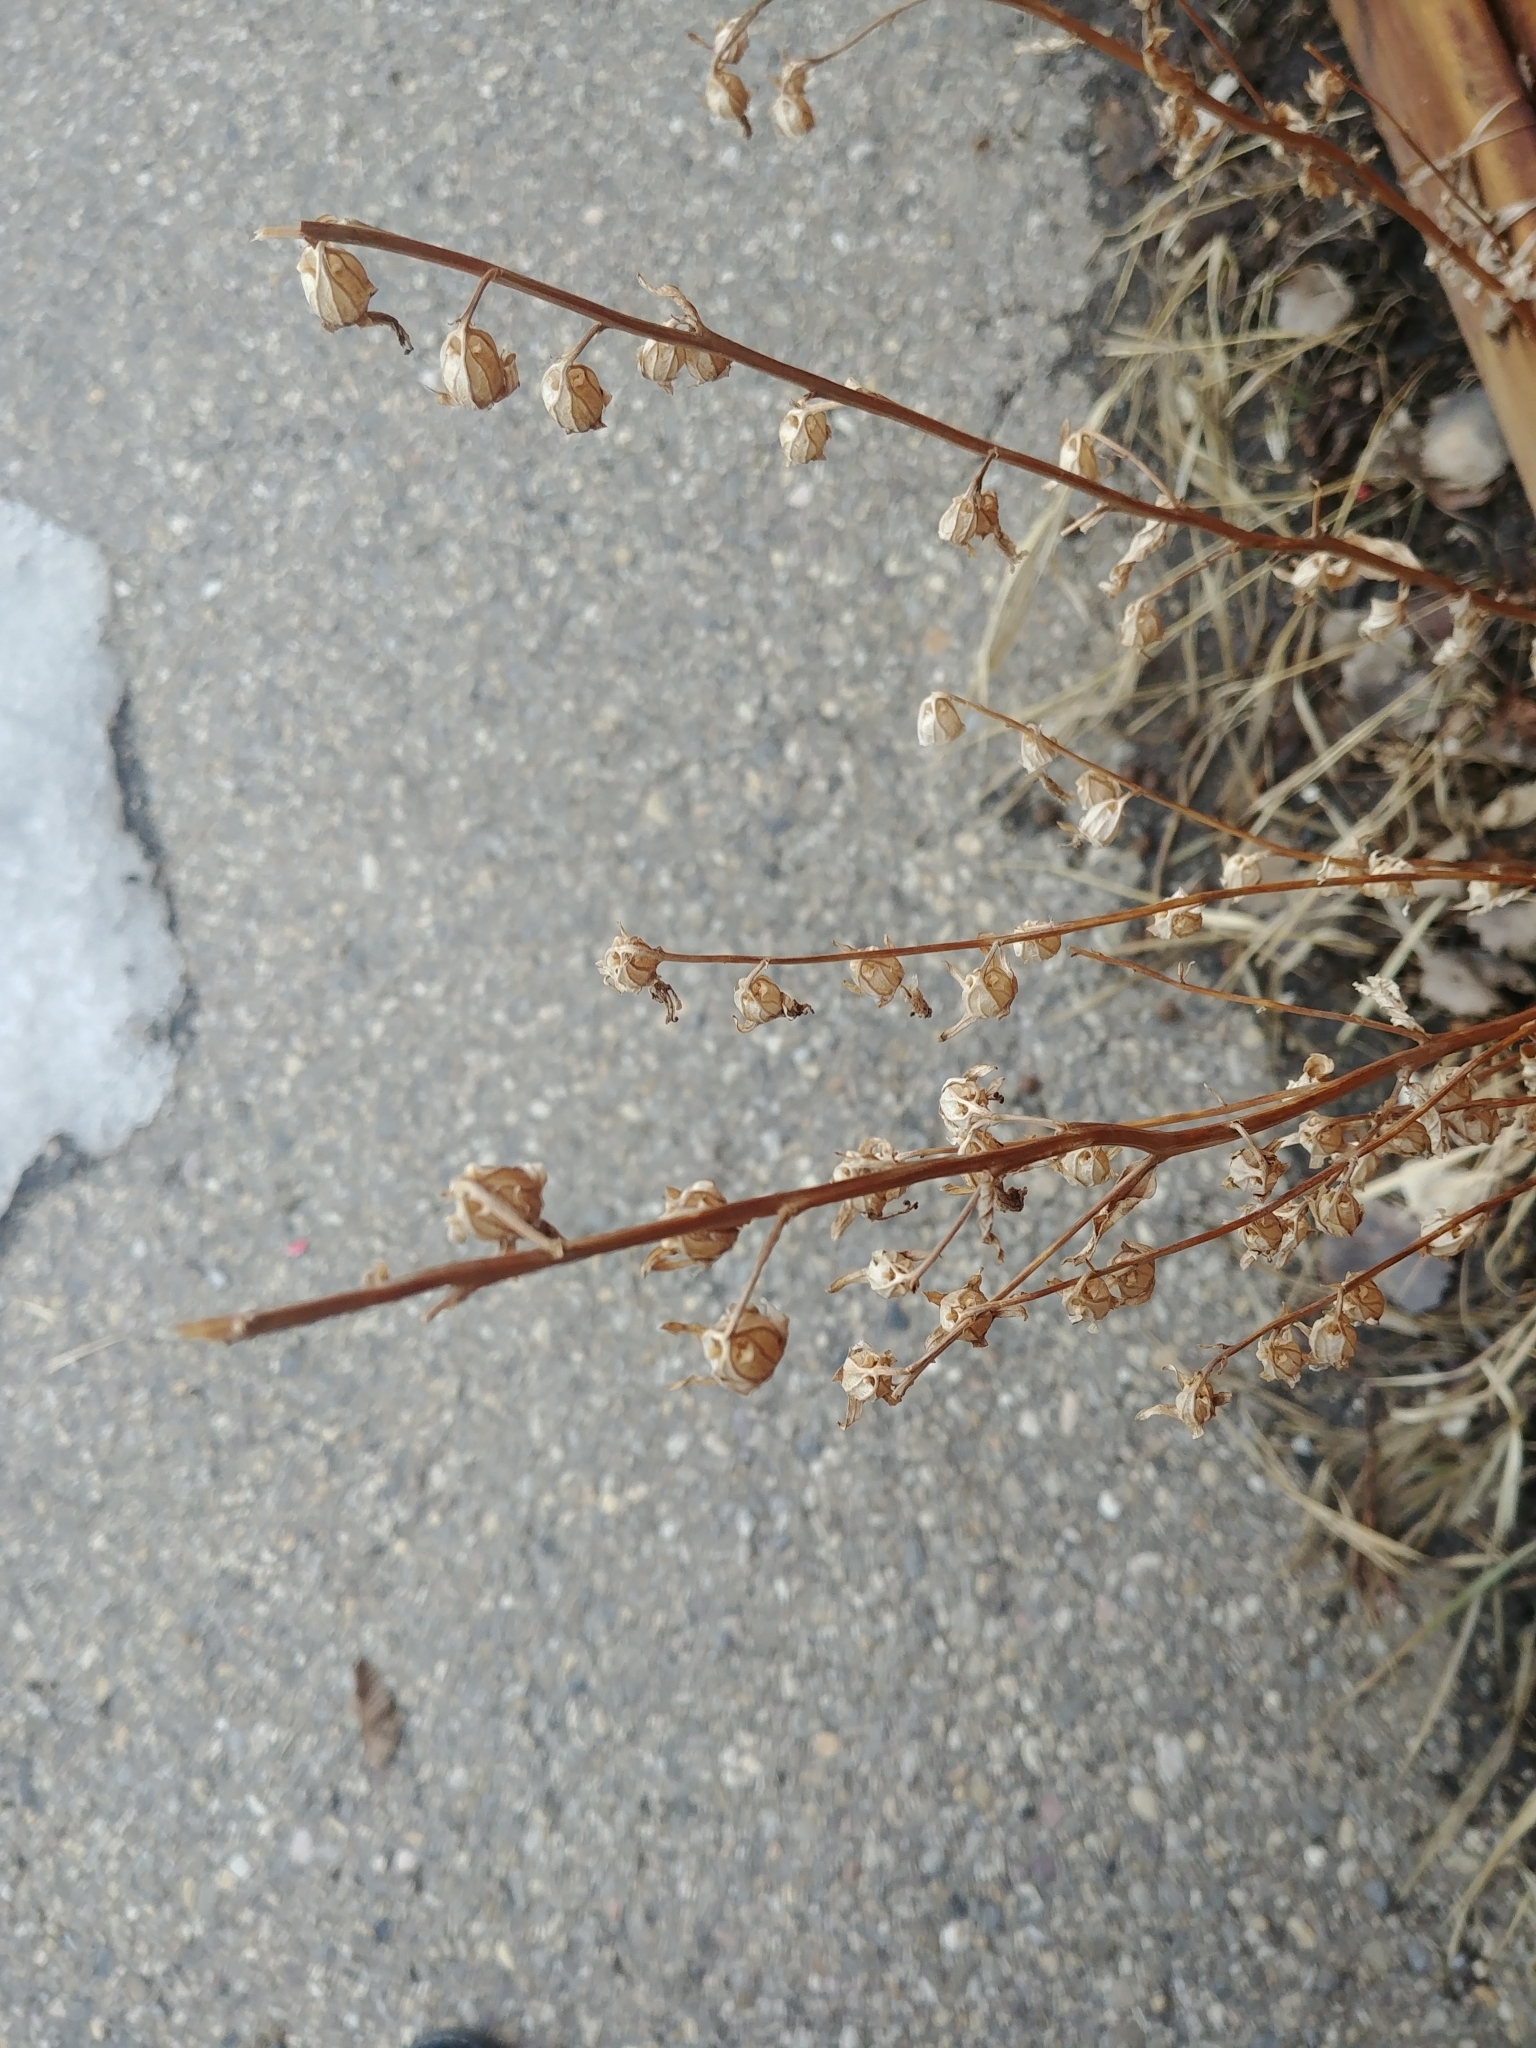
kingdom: Plantae
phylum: Tracheophyta
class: Magnoliopsida
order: Asterales
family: Campanulaceae
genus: Campanula
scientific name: Campanula rapunculoides
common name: Creeping bellflower
